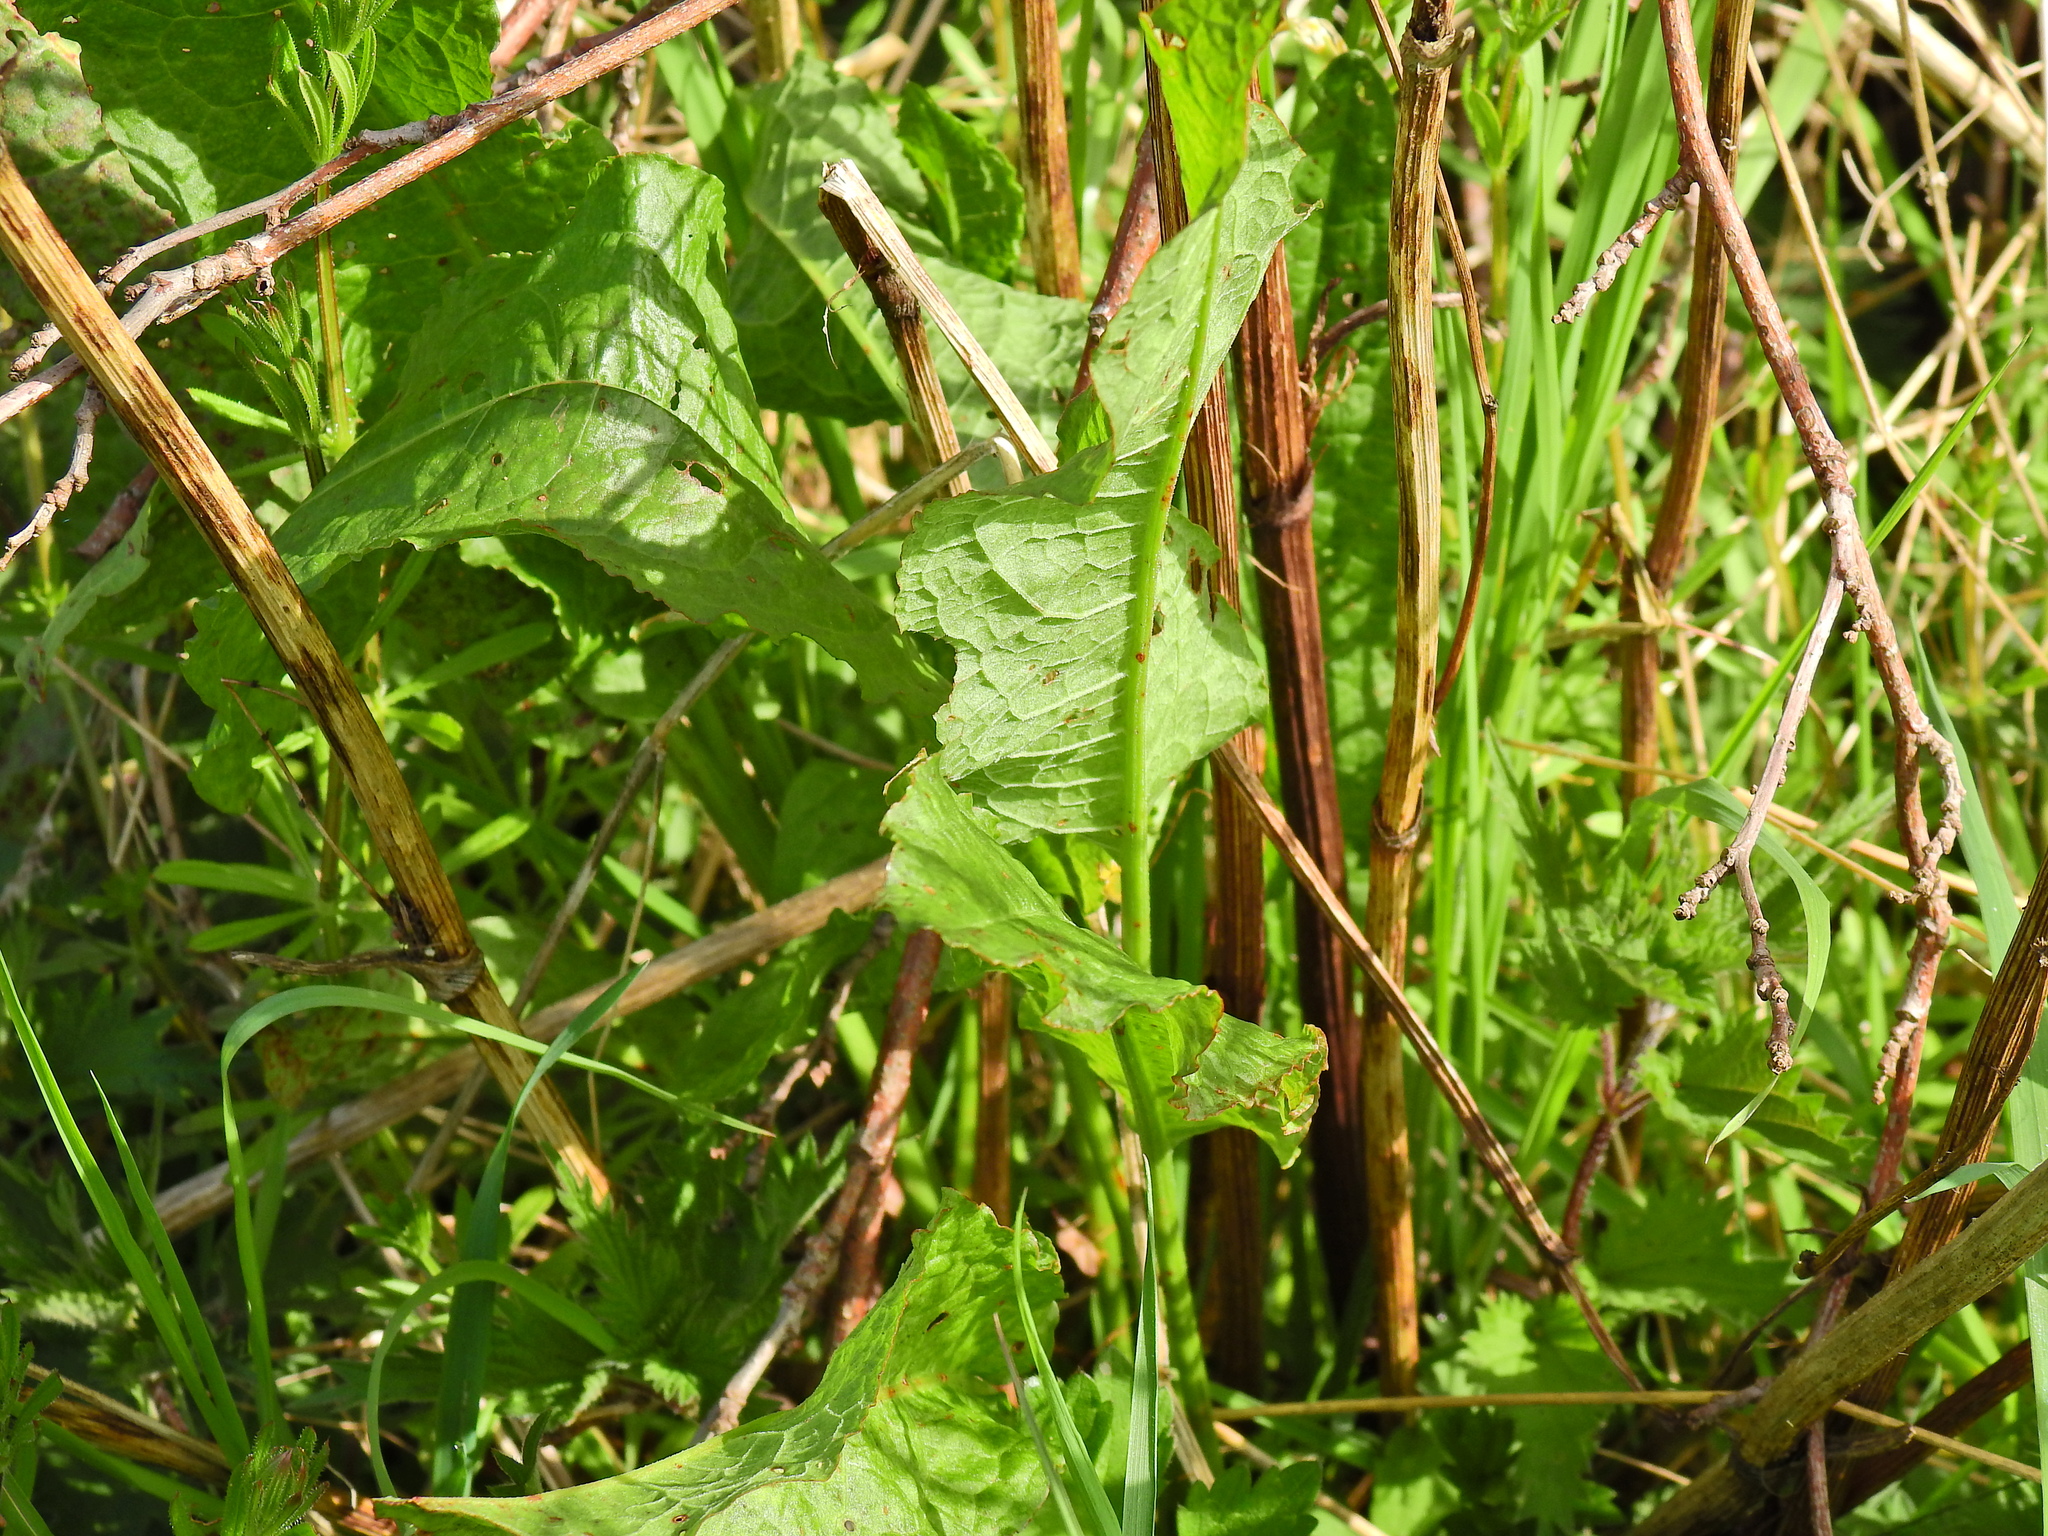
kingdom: Plantae
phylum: Tracheophyta
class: Magnoliopsida
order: Caryophyllales
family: Polygonaceae
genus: Rumex
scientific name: Rumex crispus
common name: Curled dock
